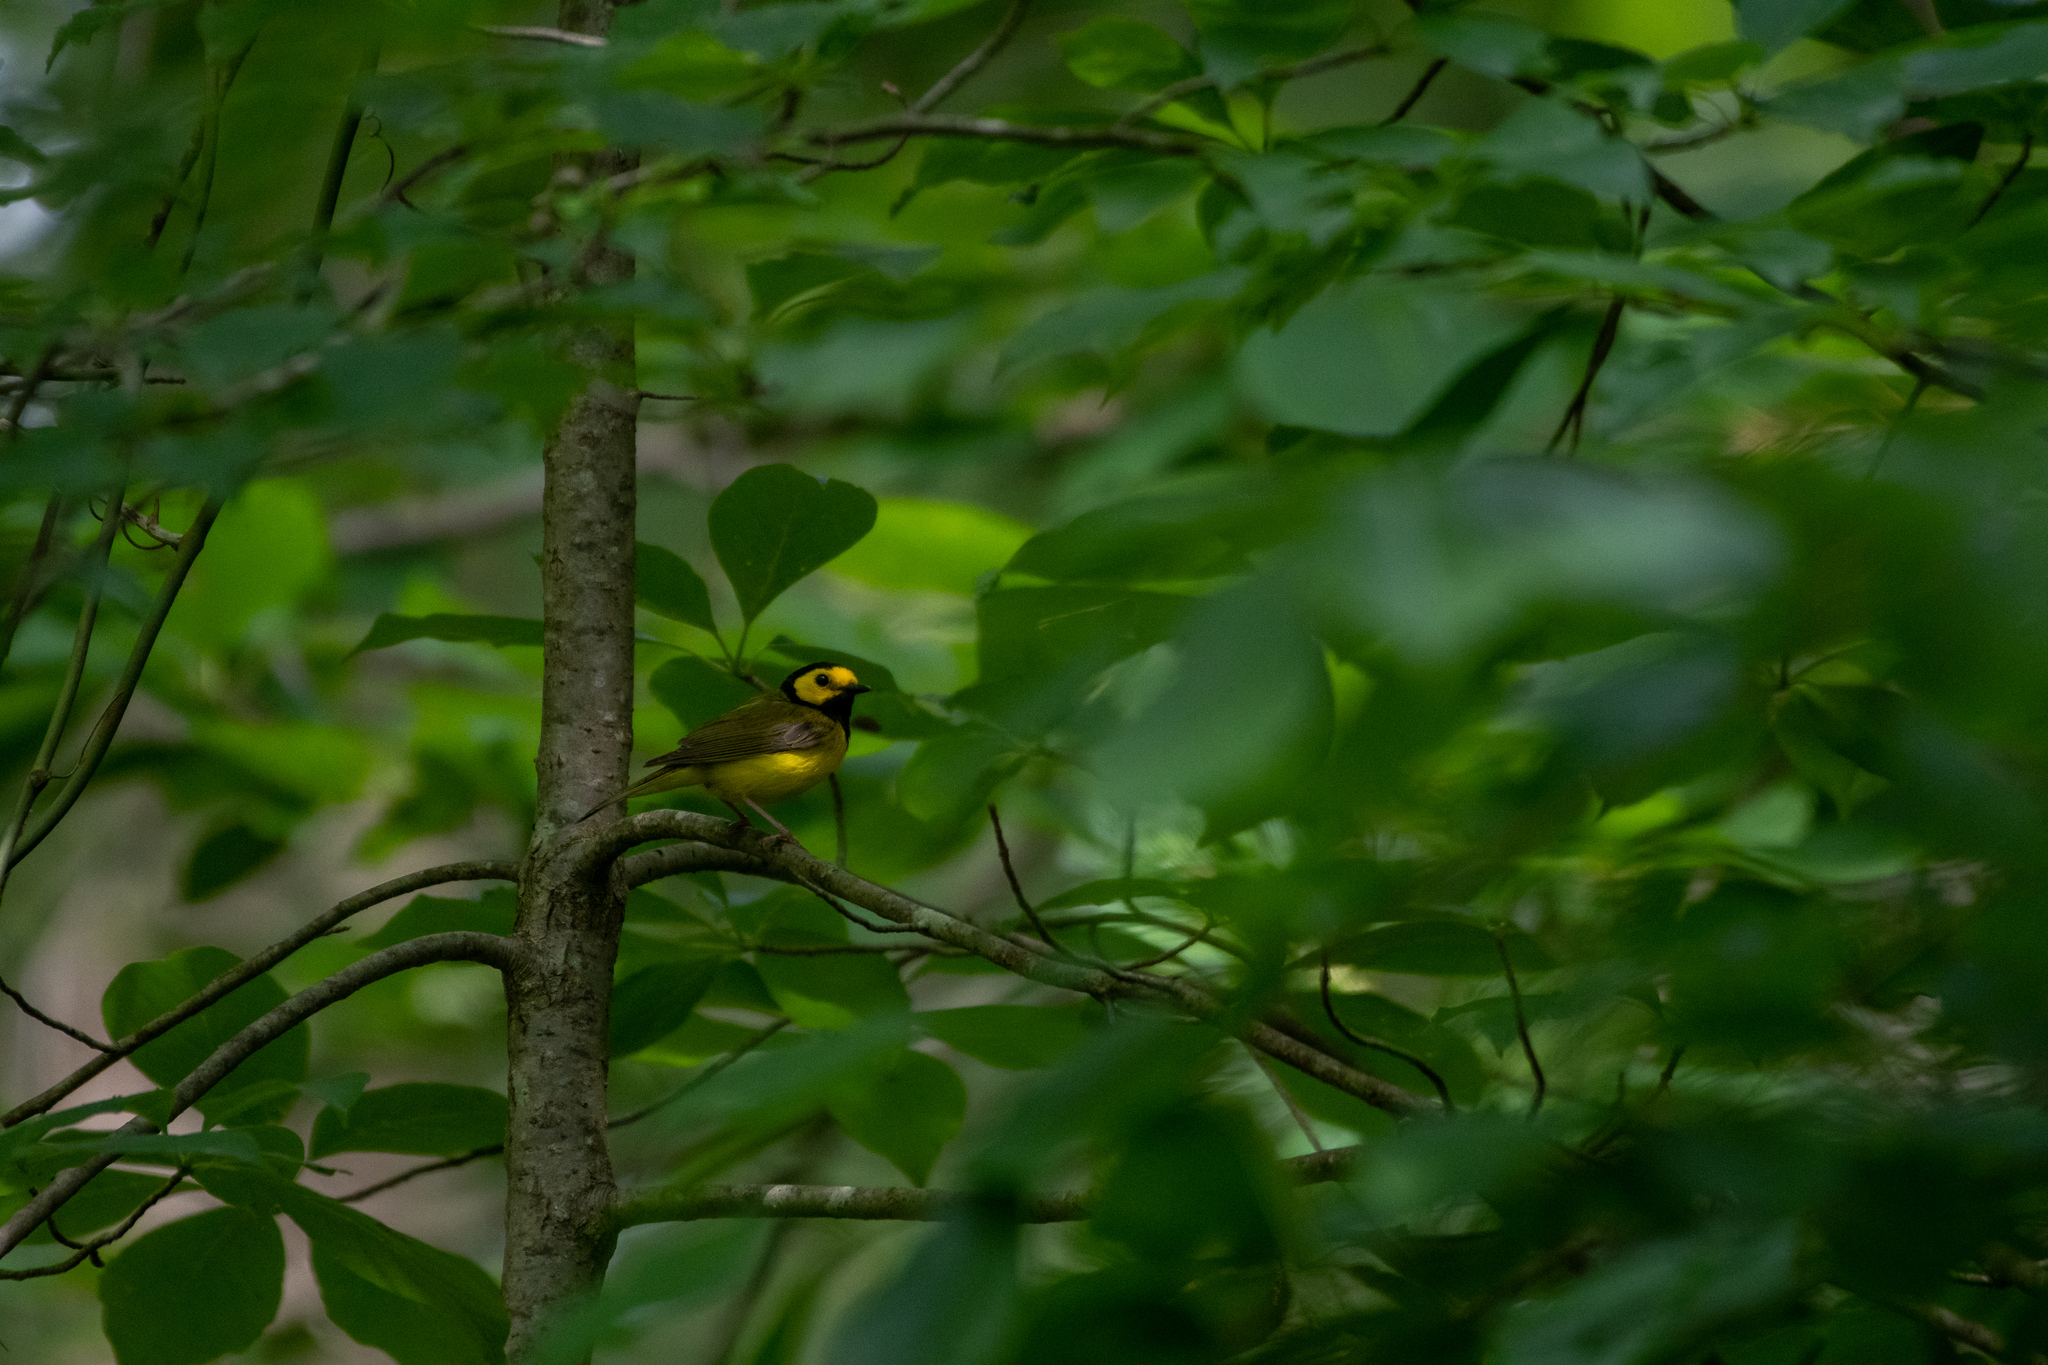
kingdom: Animalia
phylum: Chordata
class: Aves
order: Passeriformes
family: Parulidae
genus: Setophaga
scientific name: Setophaga citrina
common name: Hooded warbler
